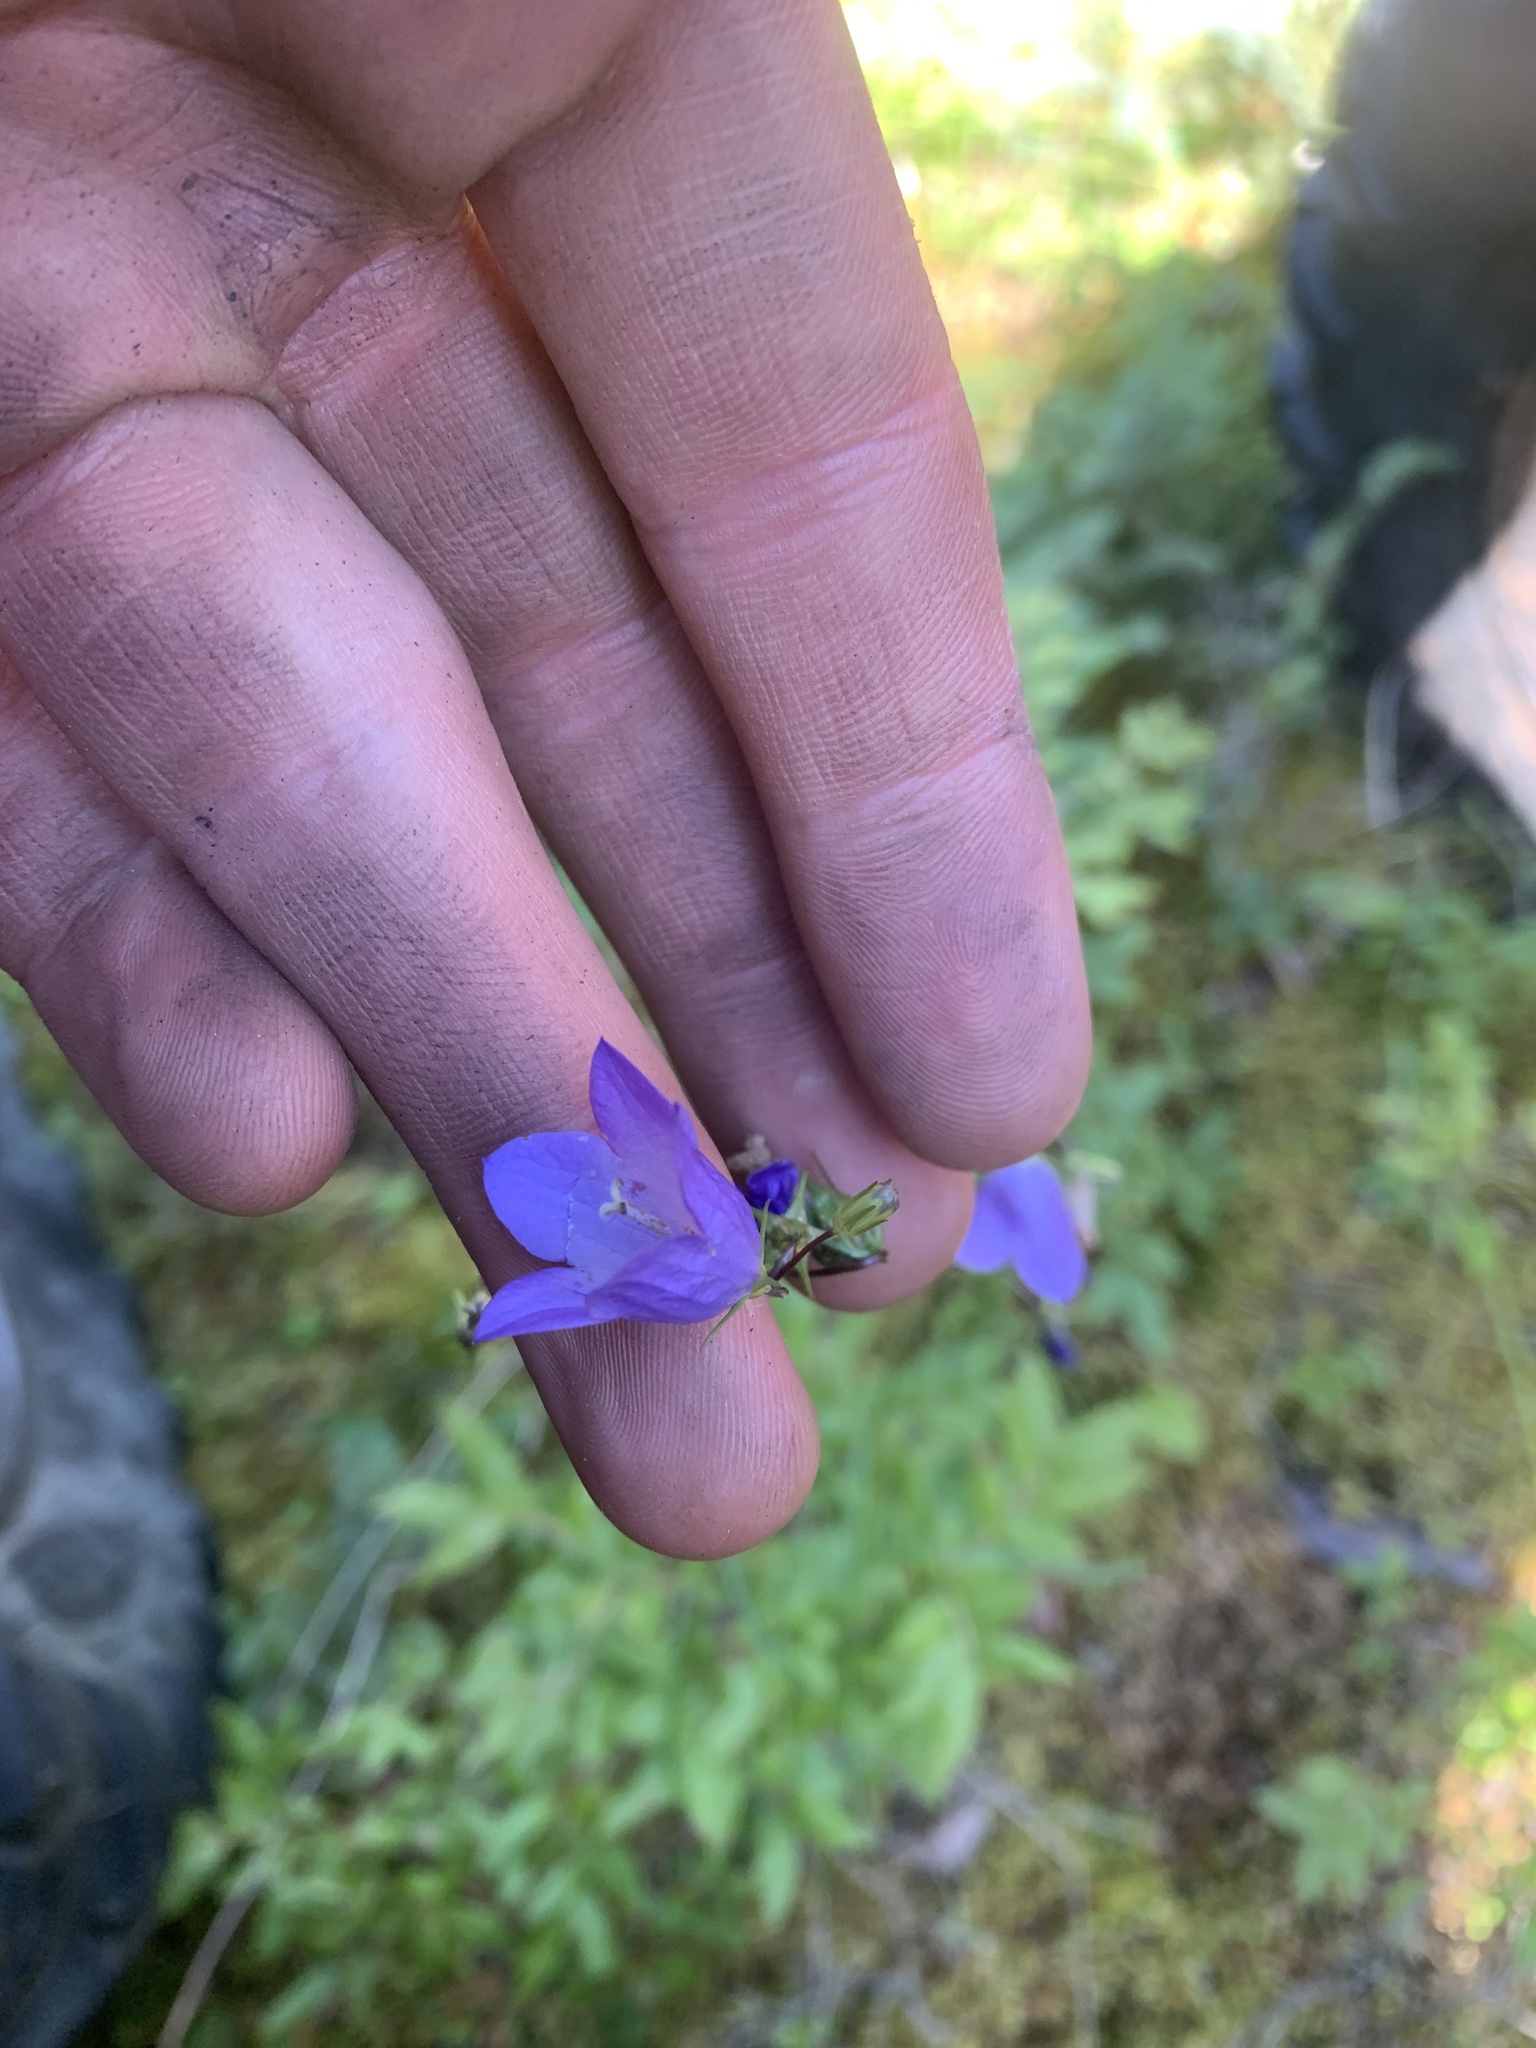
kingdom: Plantae
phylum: Tracheophyta
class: Magnoliopsida
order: Asterales
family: Campanulaceae
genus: Campanula
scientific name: Campanula alaskana
